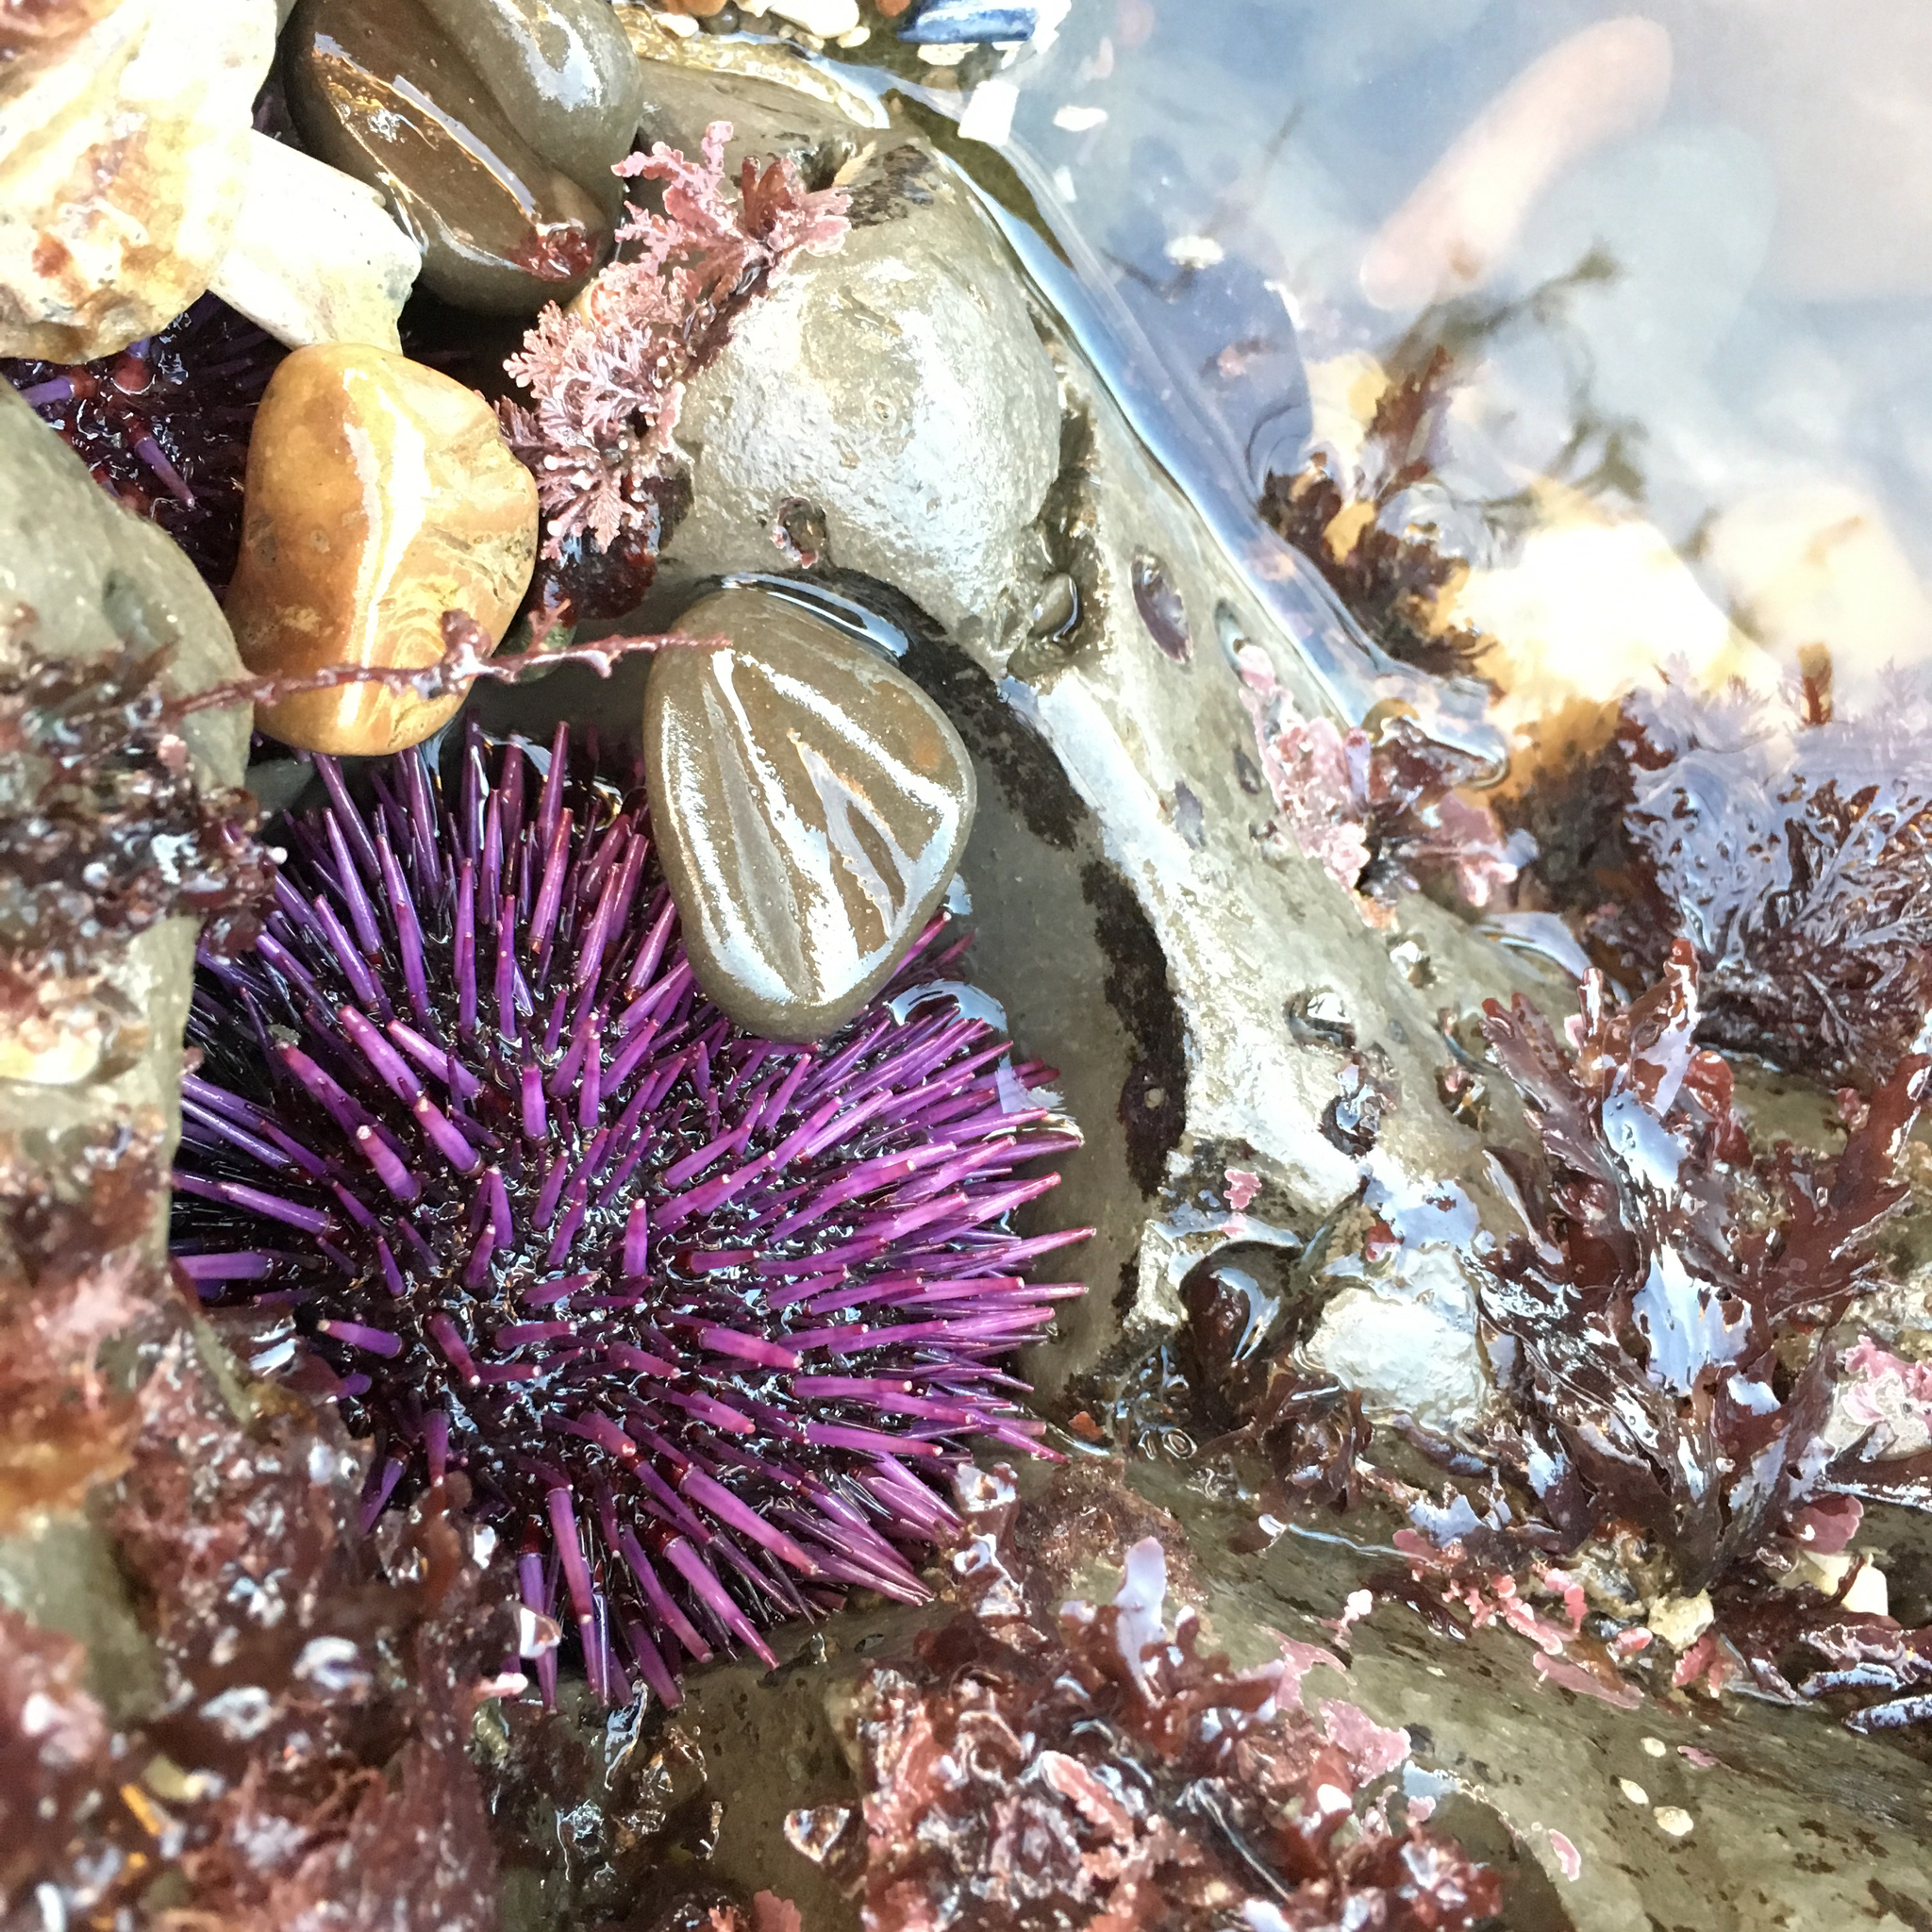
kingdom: Animalia
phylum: Echinodermata
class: Echinoidea
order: Camarodonta
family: Strongylocentrotidae
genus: Strongylocentrotus
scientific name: Strongylocentrotus purpuratus
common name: Purple sea urchin
